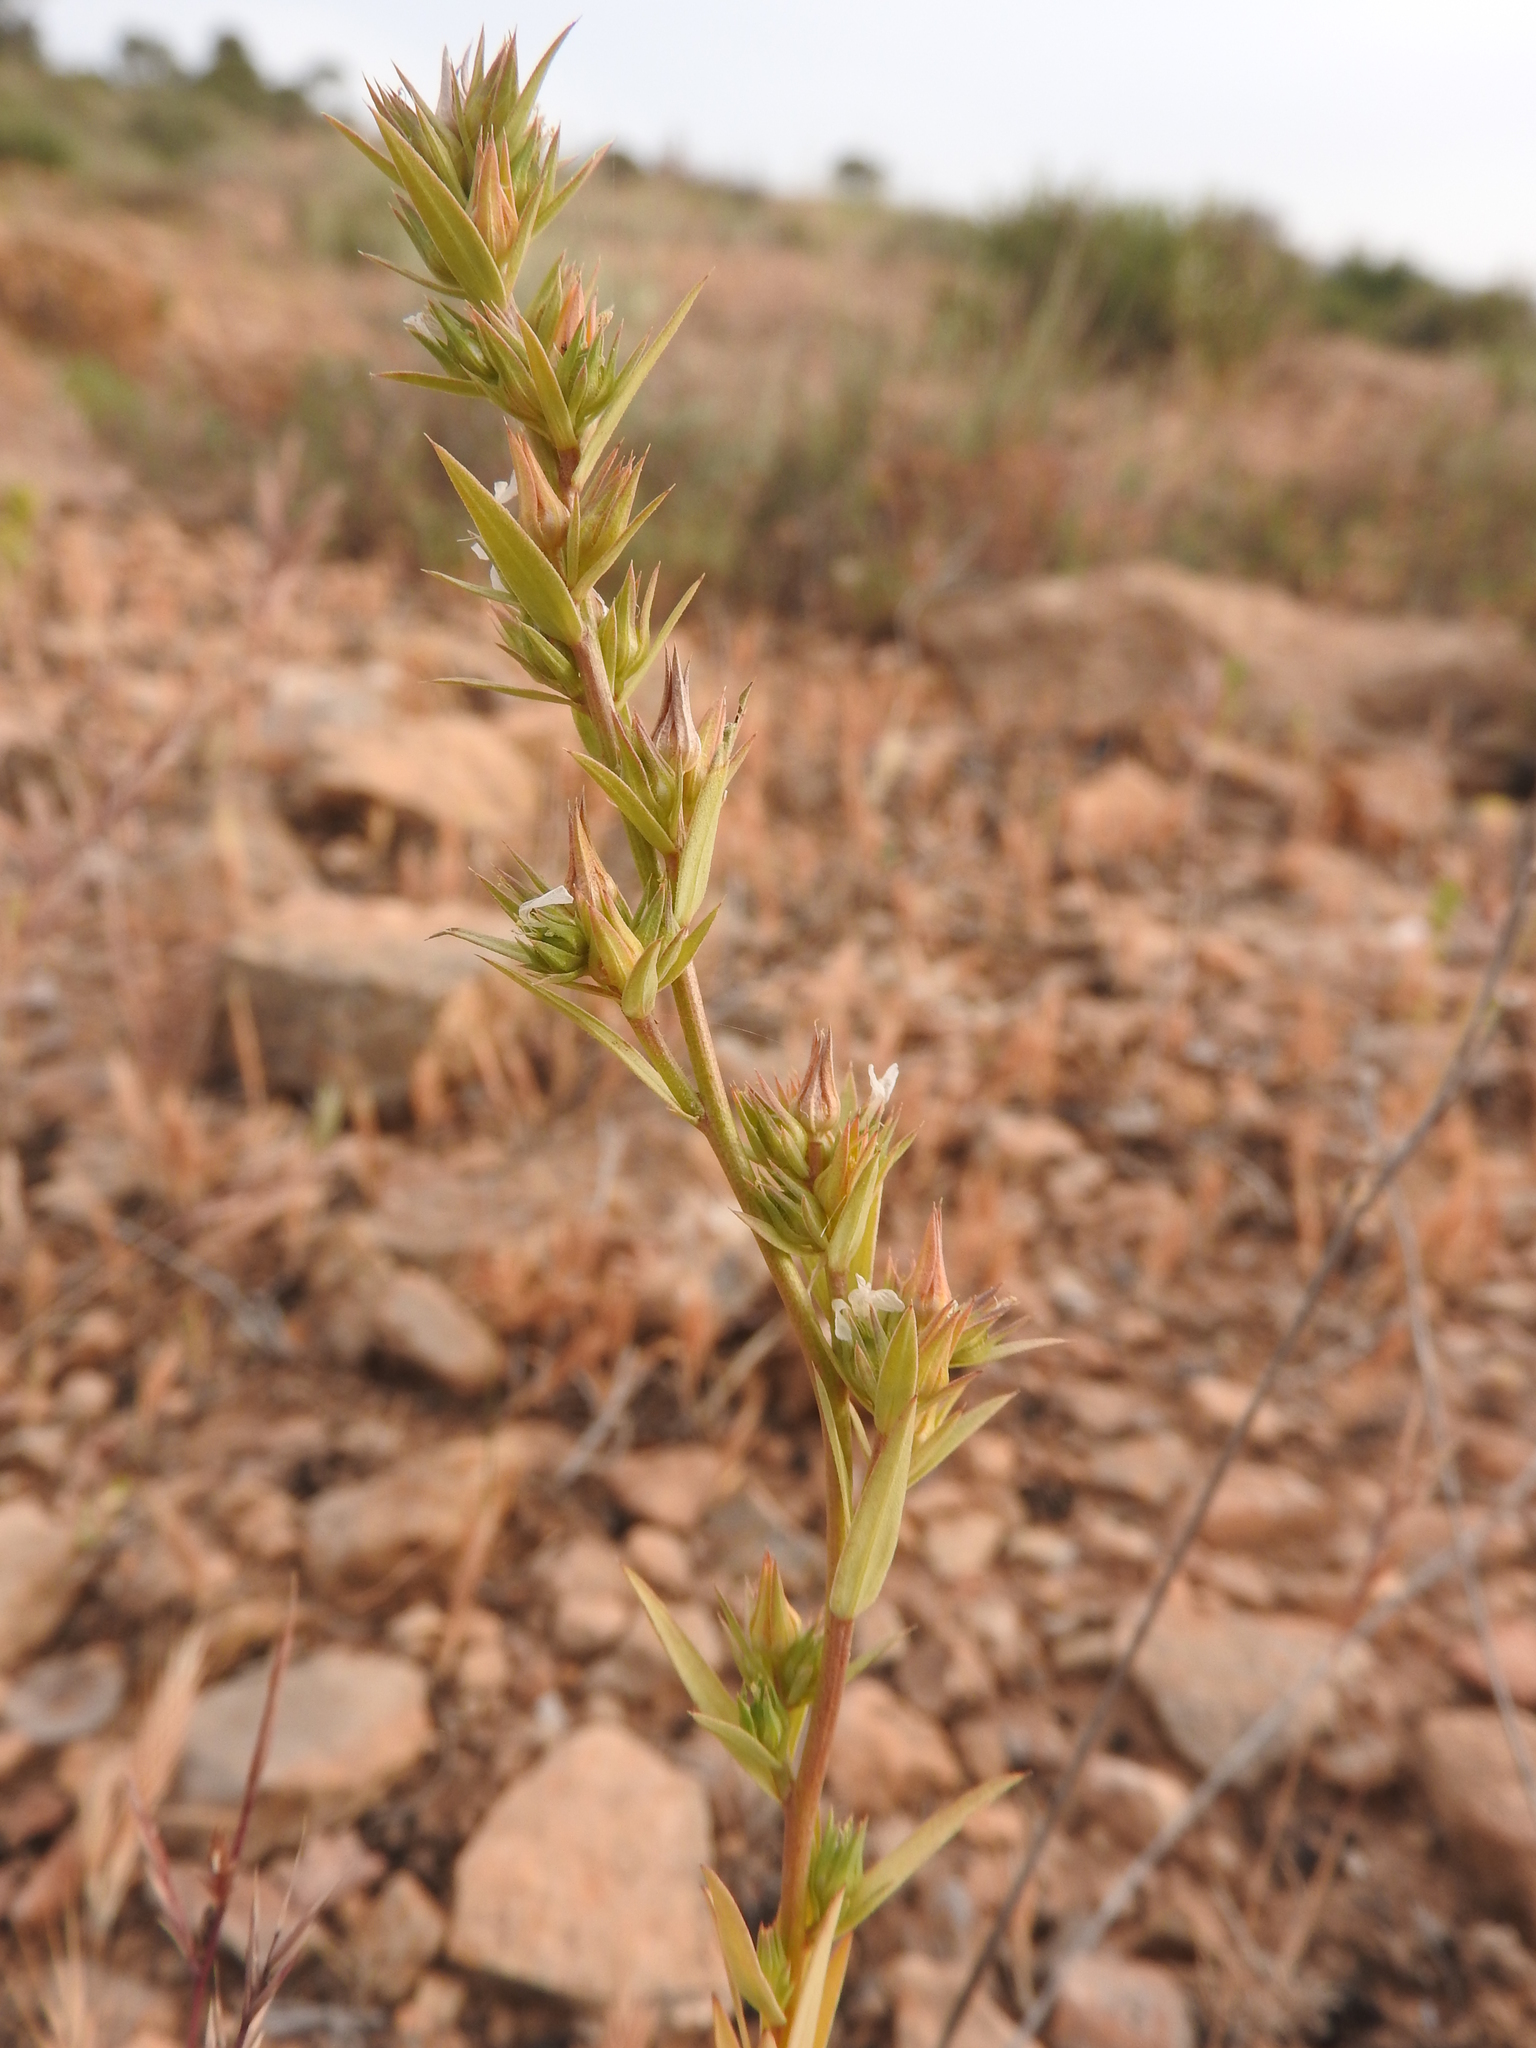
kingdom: Plantae
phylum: Tracheophyta
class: Magnoliopsida
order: Malpighiales
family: Linaceae
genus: Linum
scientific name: Linum strictum
